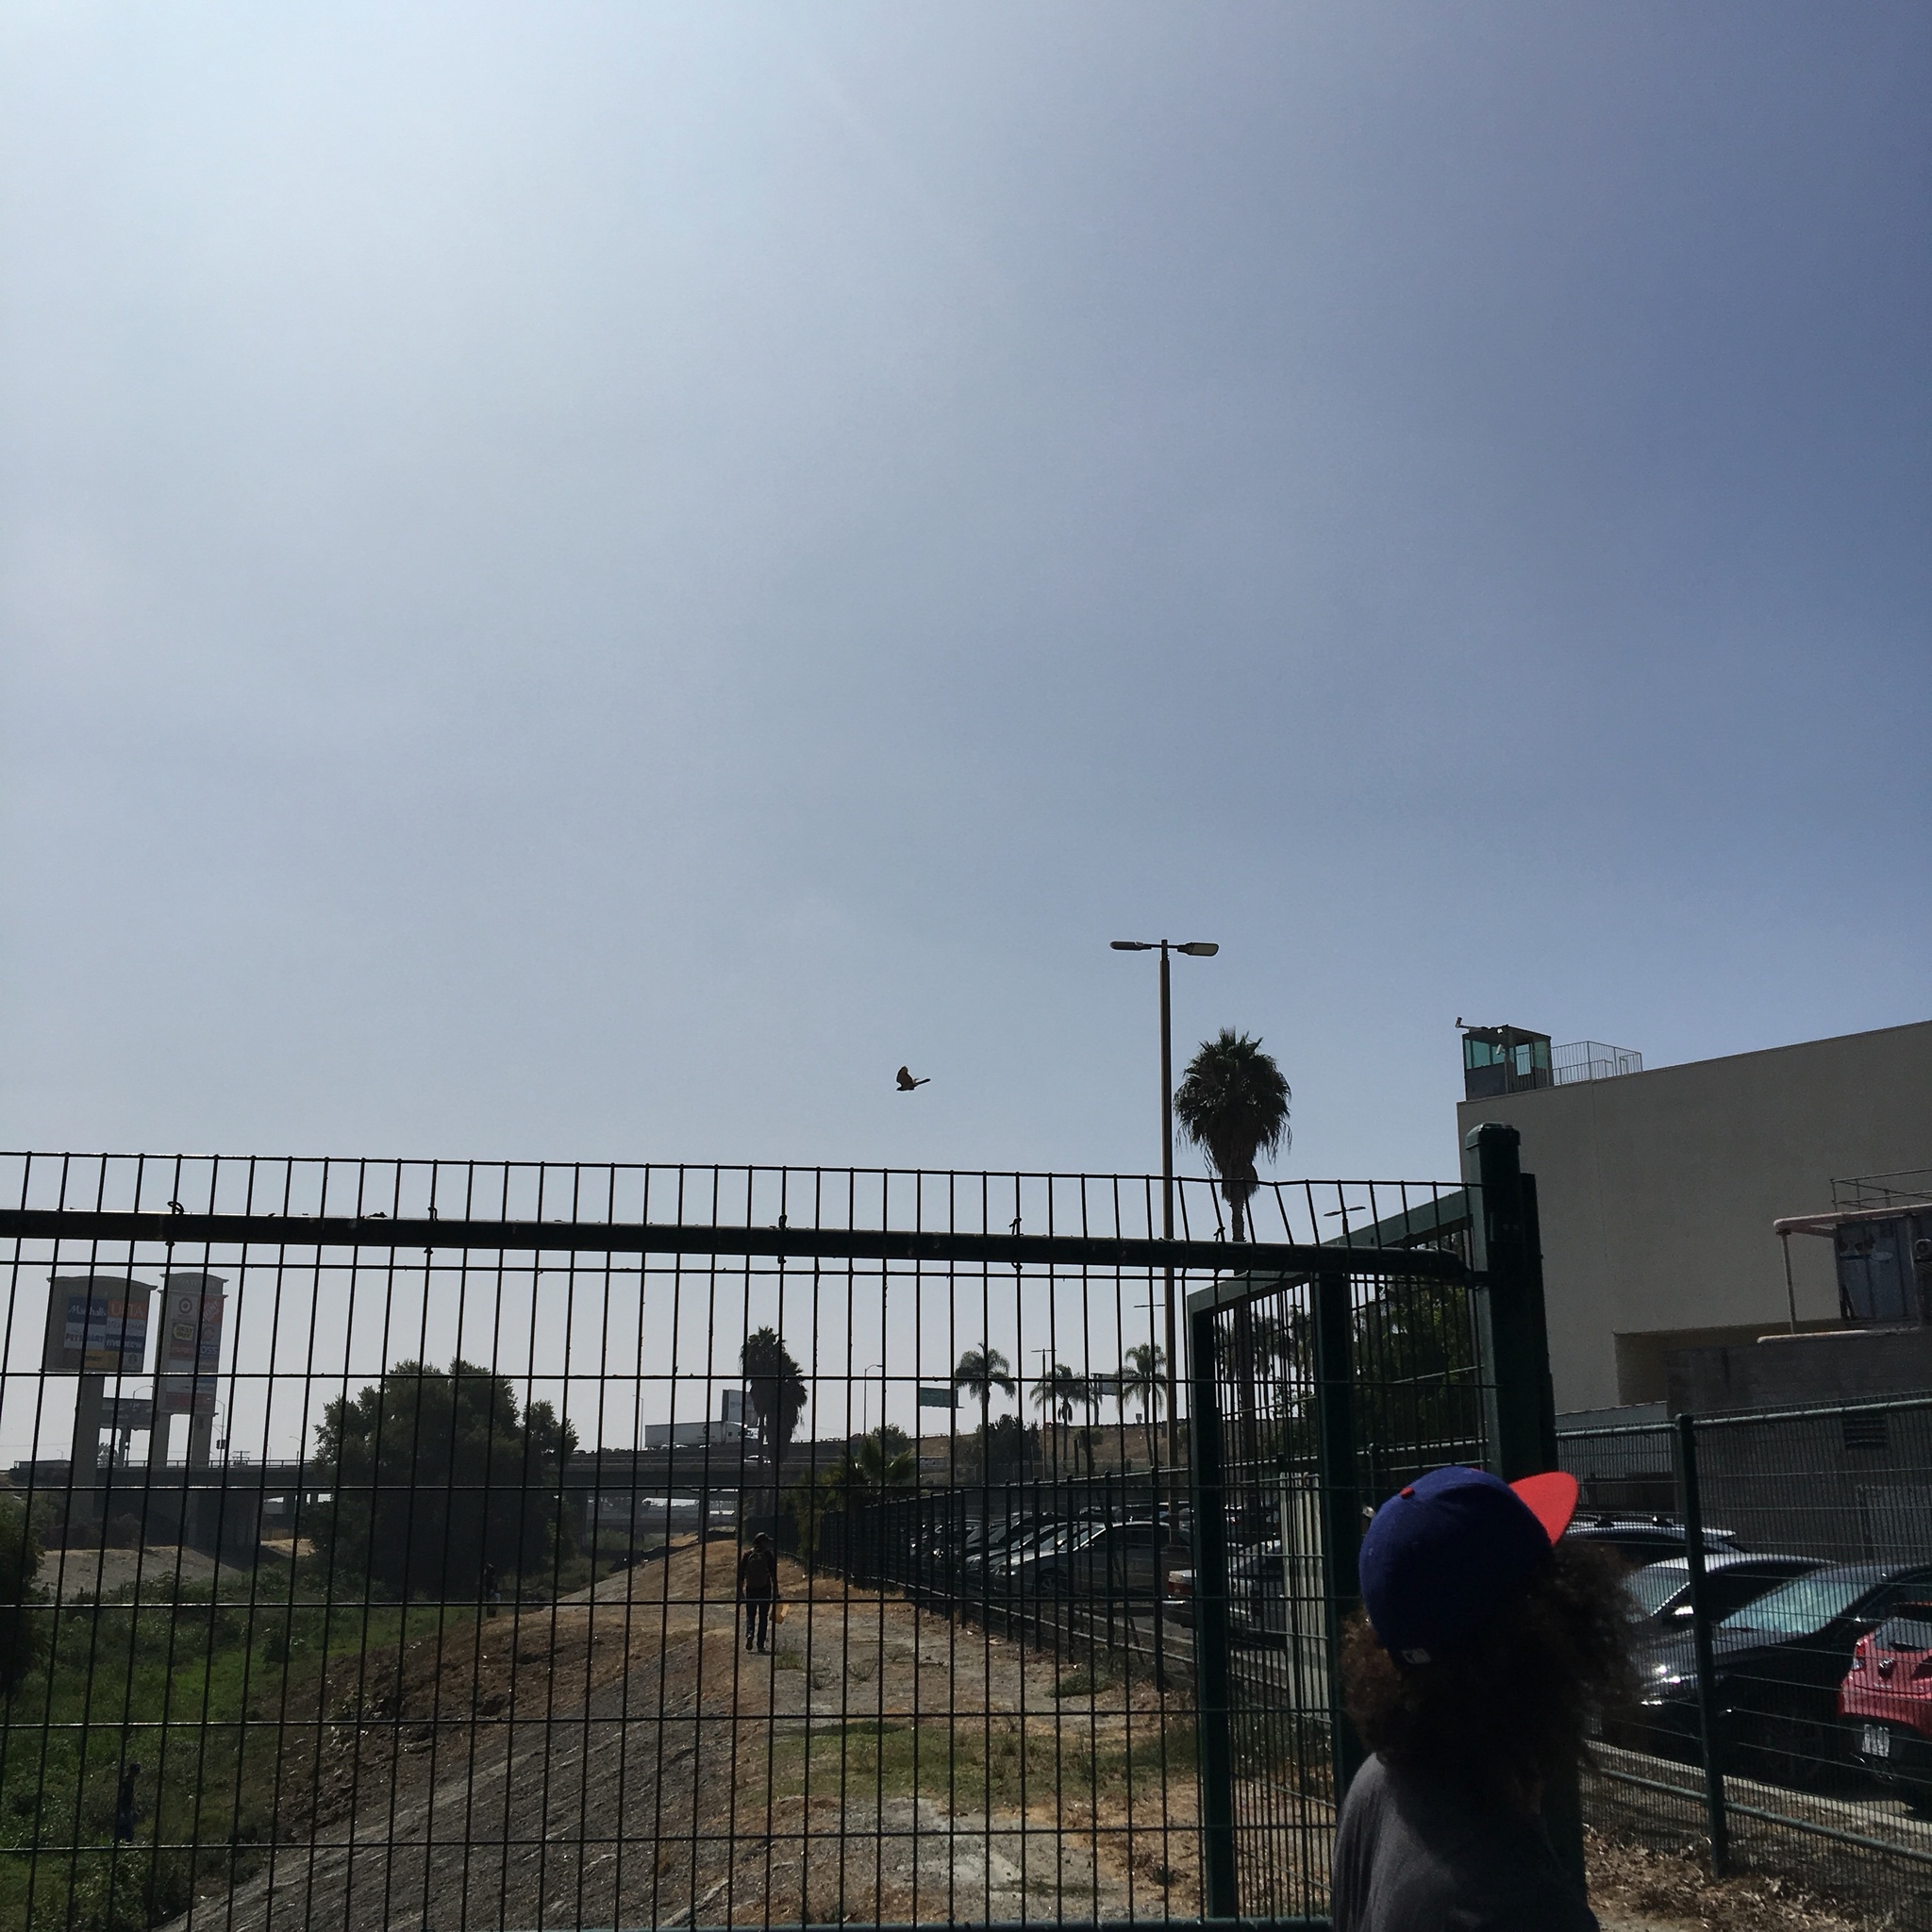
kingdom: Animalia
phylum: Chordata
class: Aves
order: Accipitriformes
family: Accipitridae
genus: Accipiter
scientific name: Accipiter cooperii
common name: Cooper's hawk
